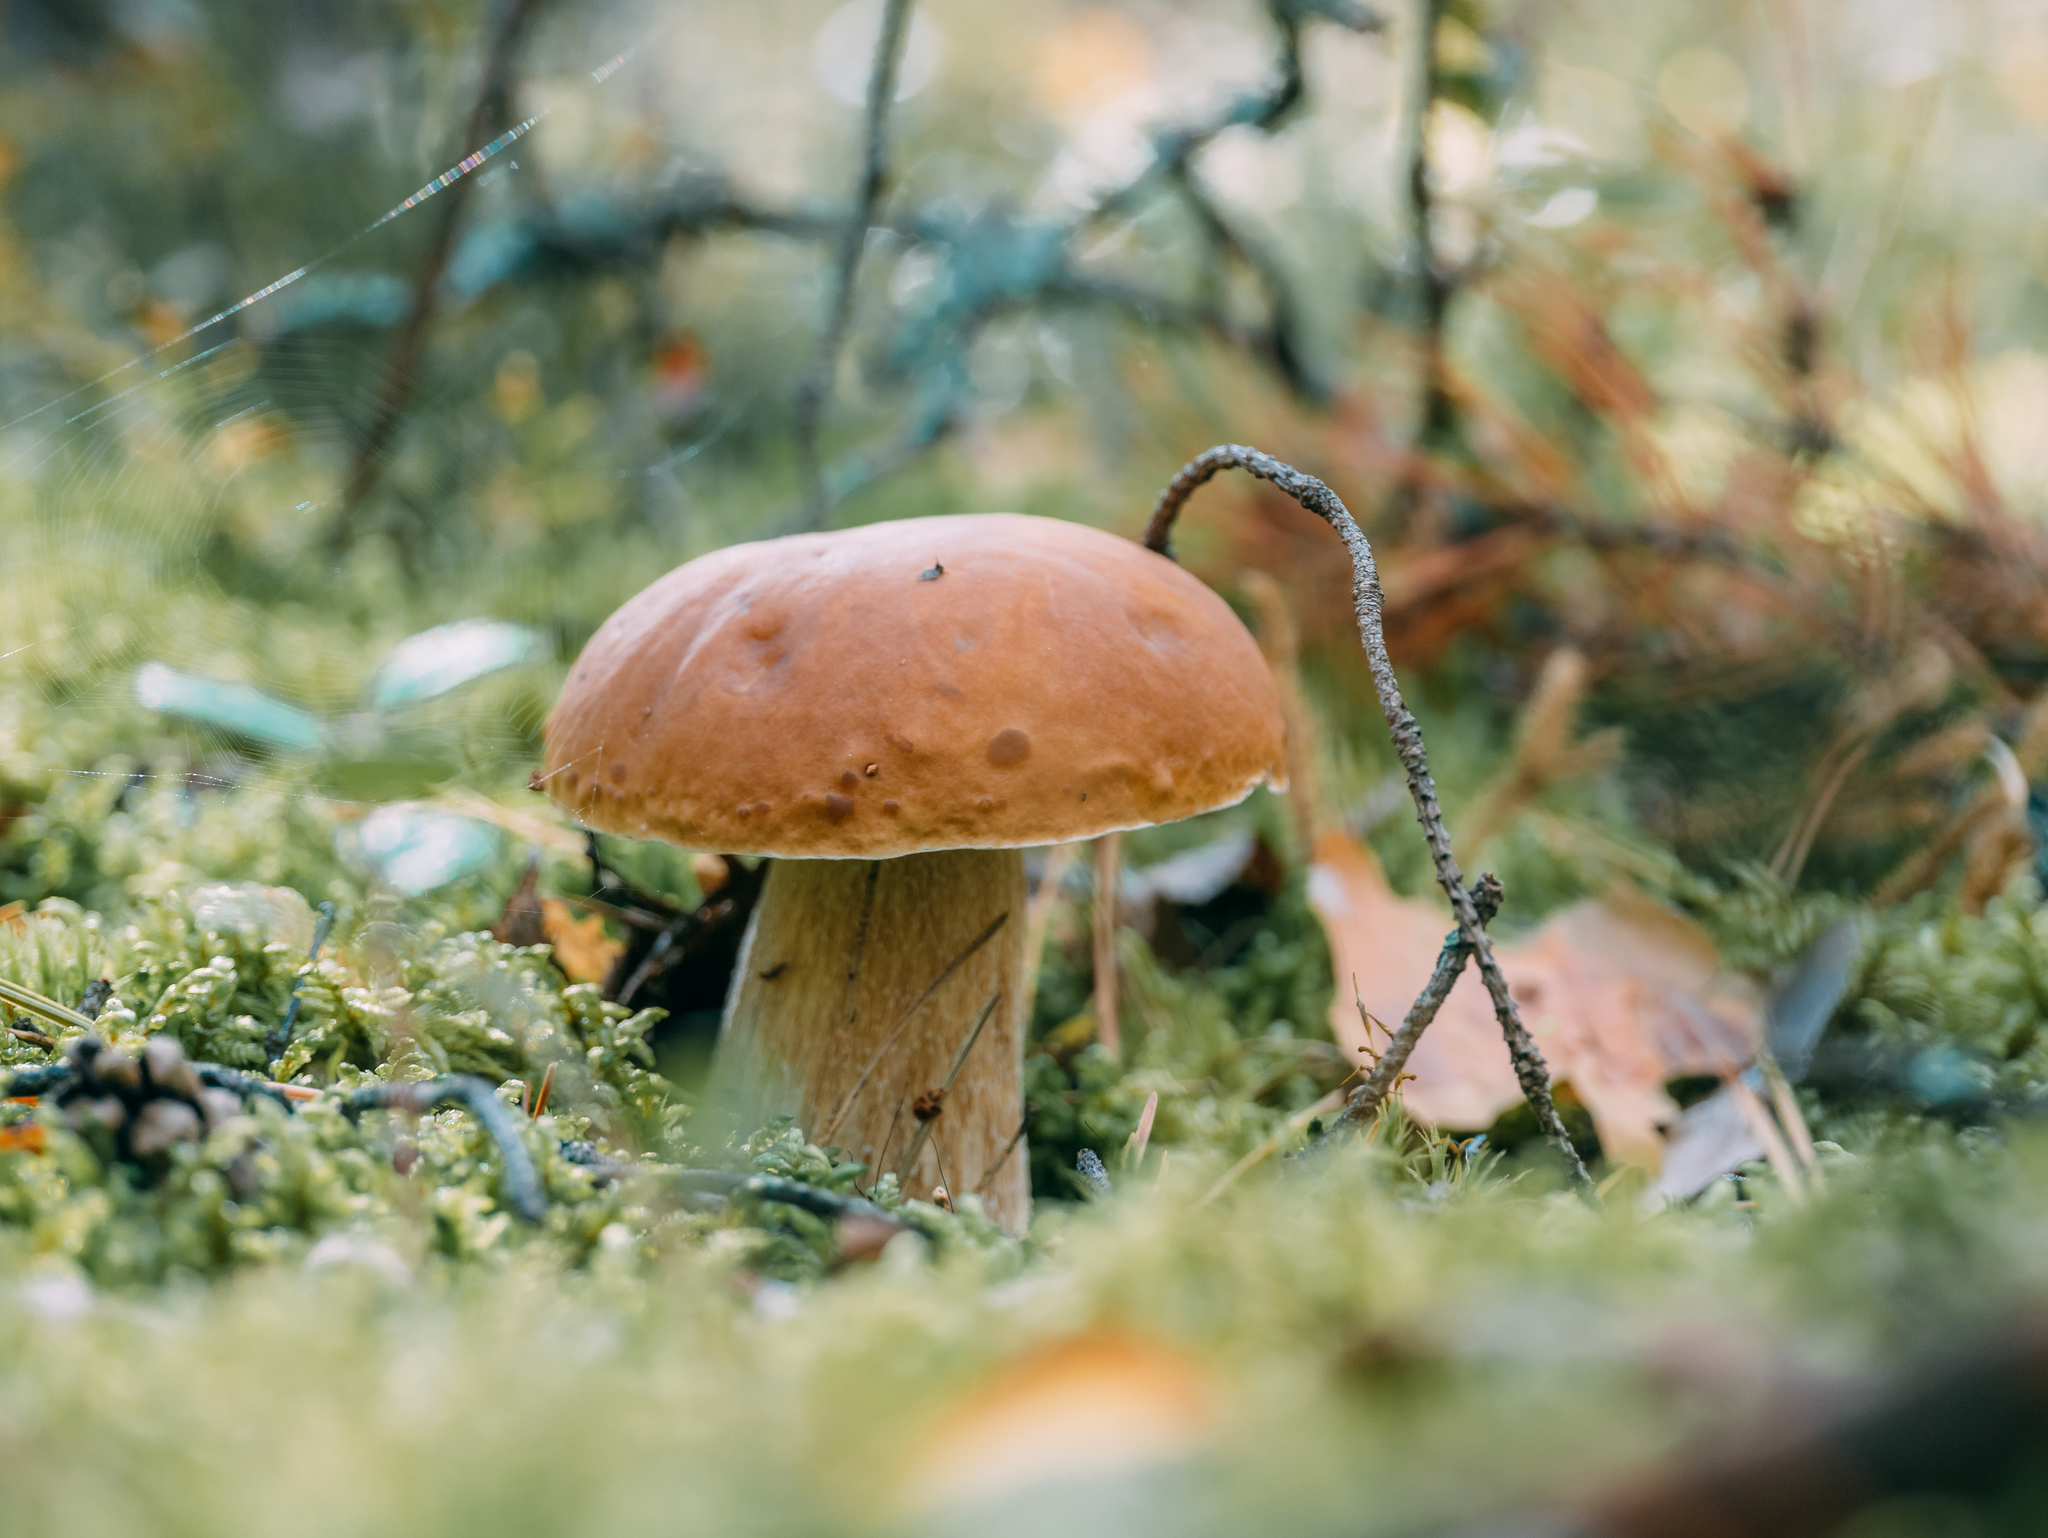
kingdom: Fungi
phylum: Basidiomycota
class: Agaricomycetes
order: Boletales
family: Boletaceae
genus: Boletus
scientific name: Boletus edulis
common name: Cep
